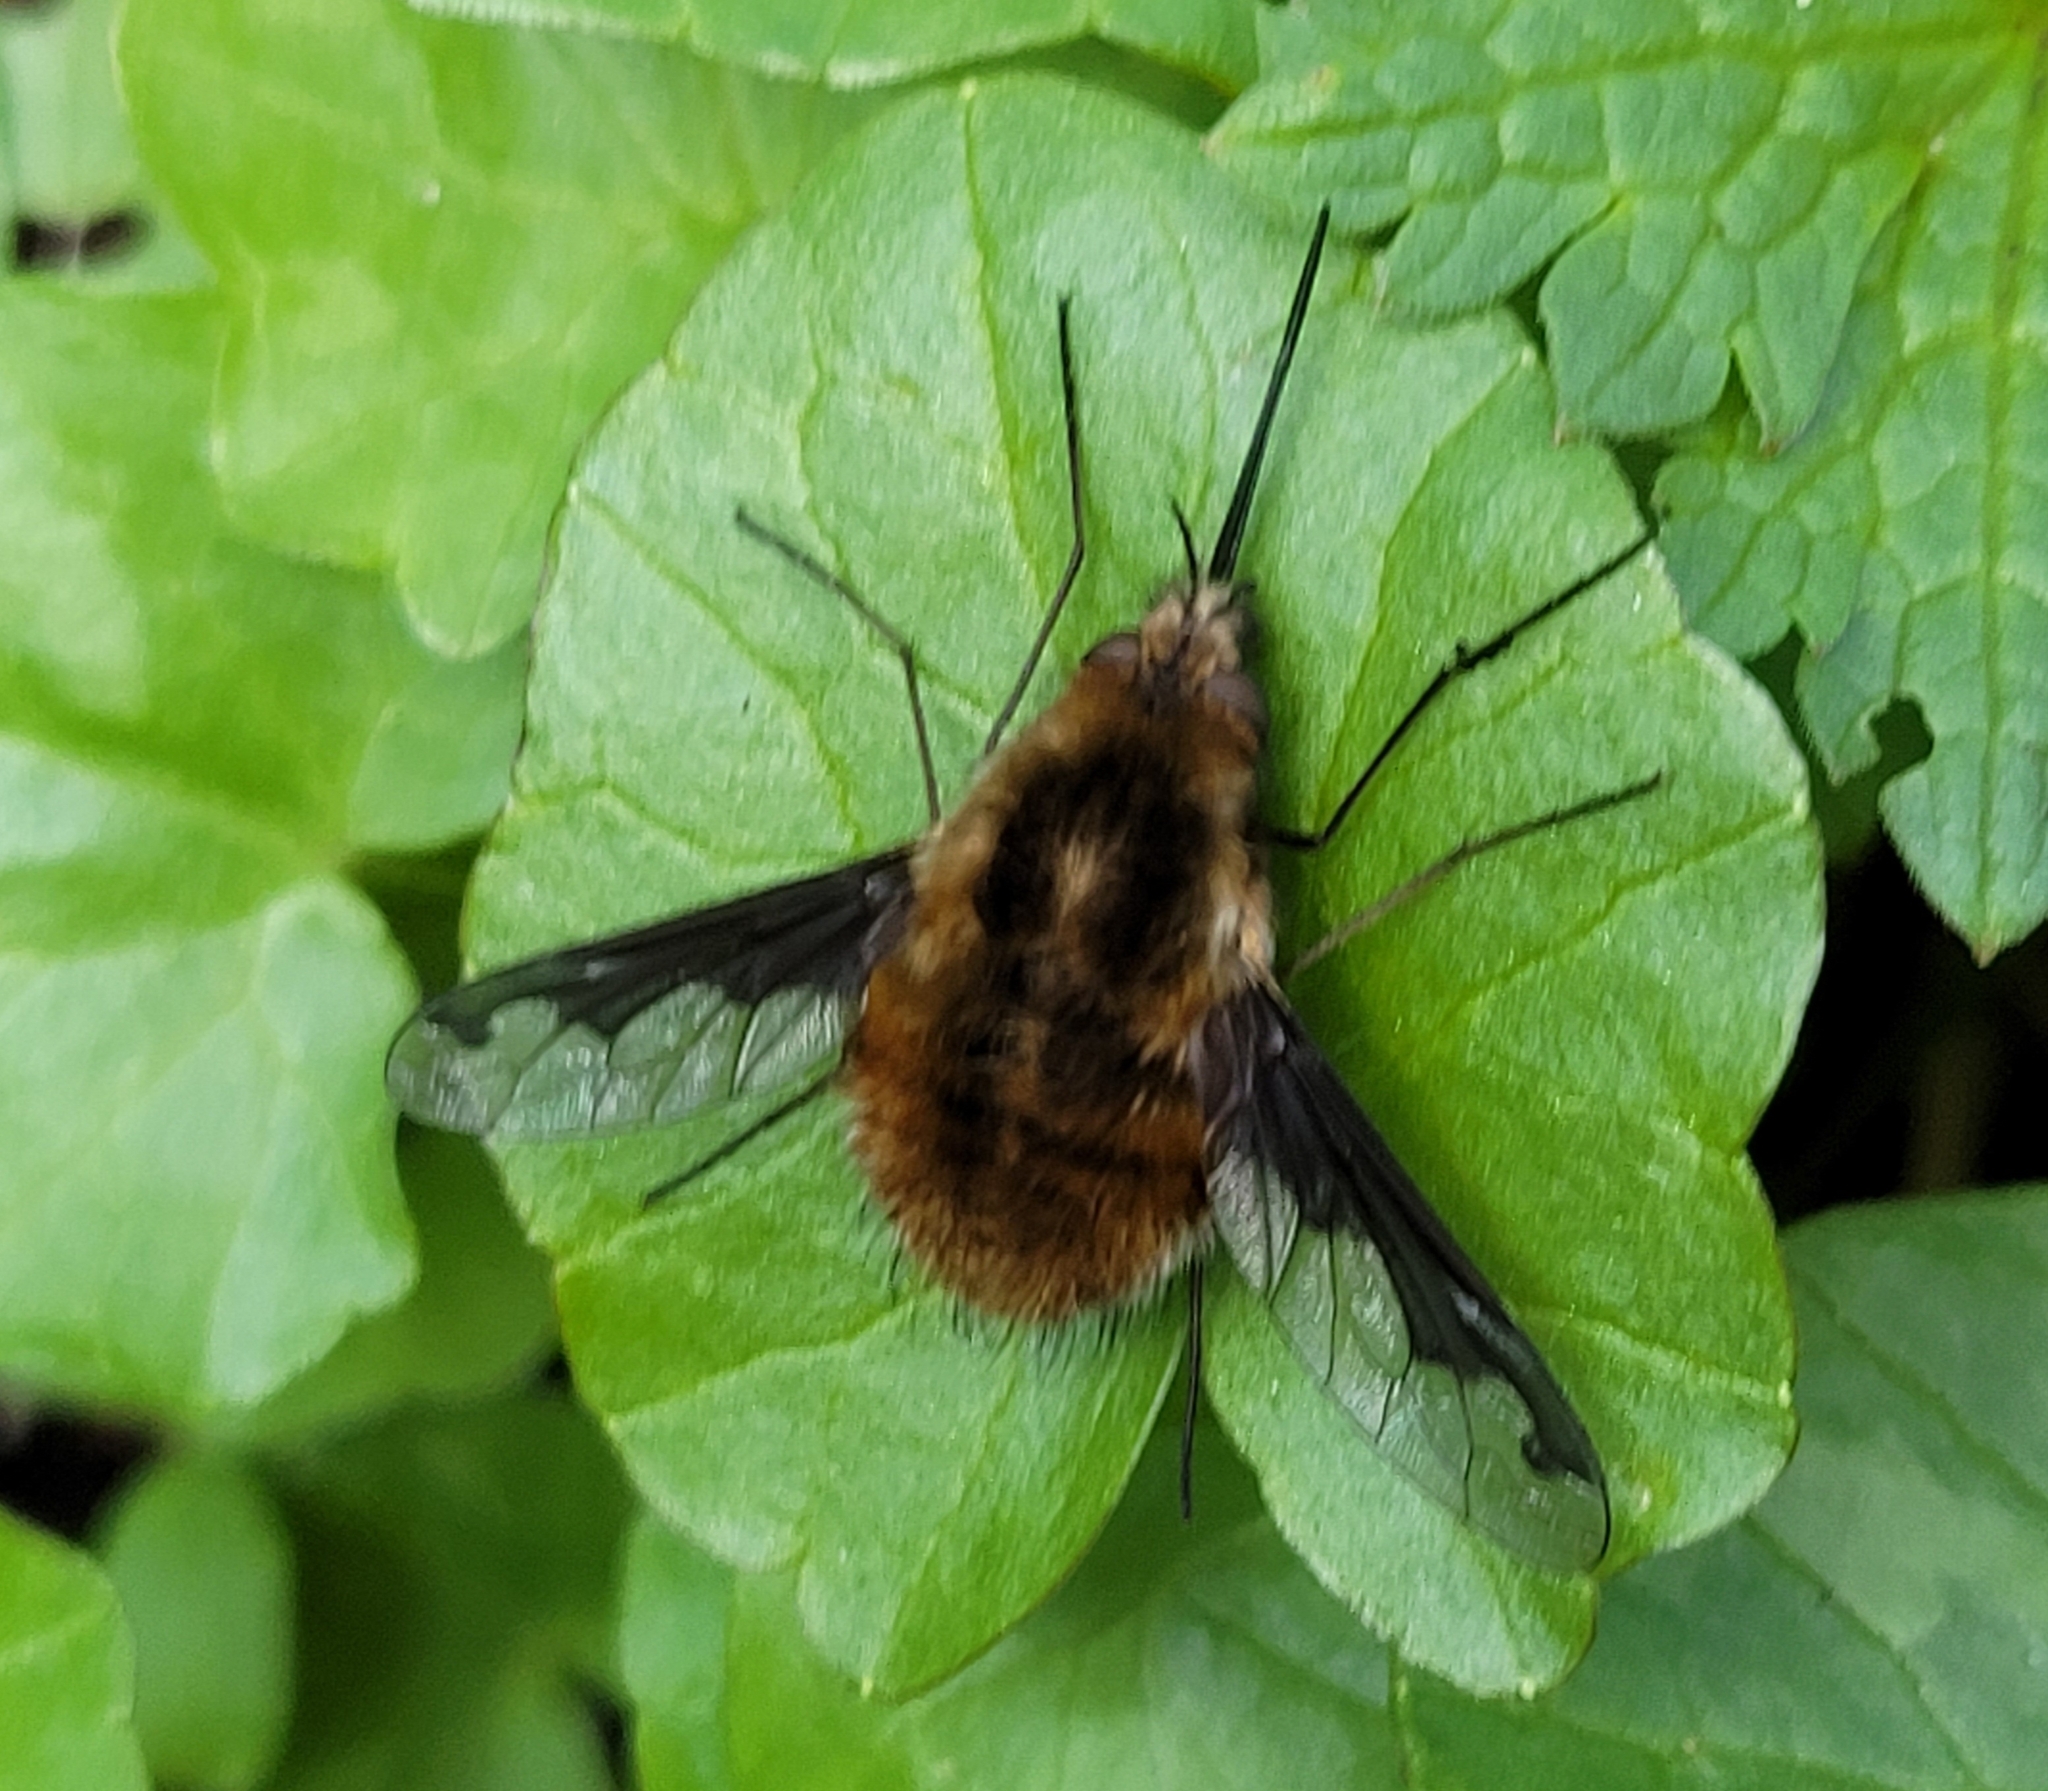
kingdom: Animalia
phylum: Arthropoda
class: Insecta
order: Diptera
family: Bombyliidae
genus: Bombylius
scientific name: Bombylius major
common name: Bee fly
